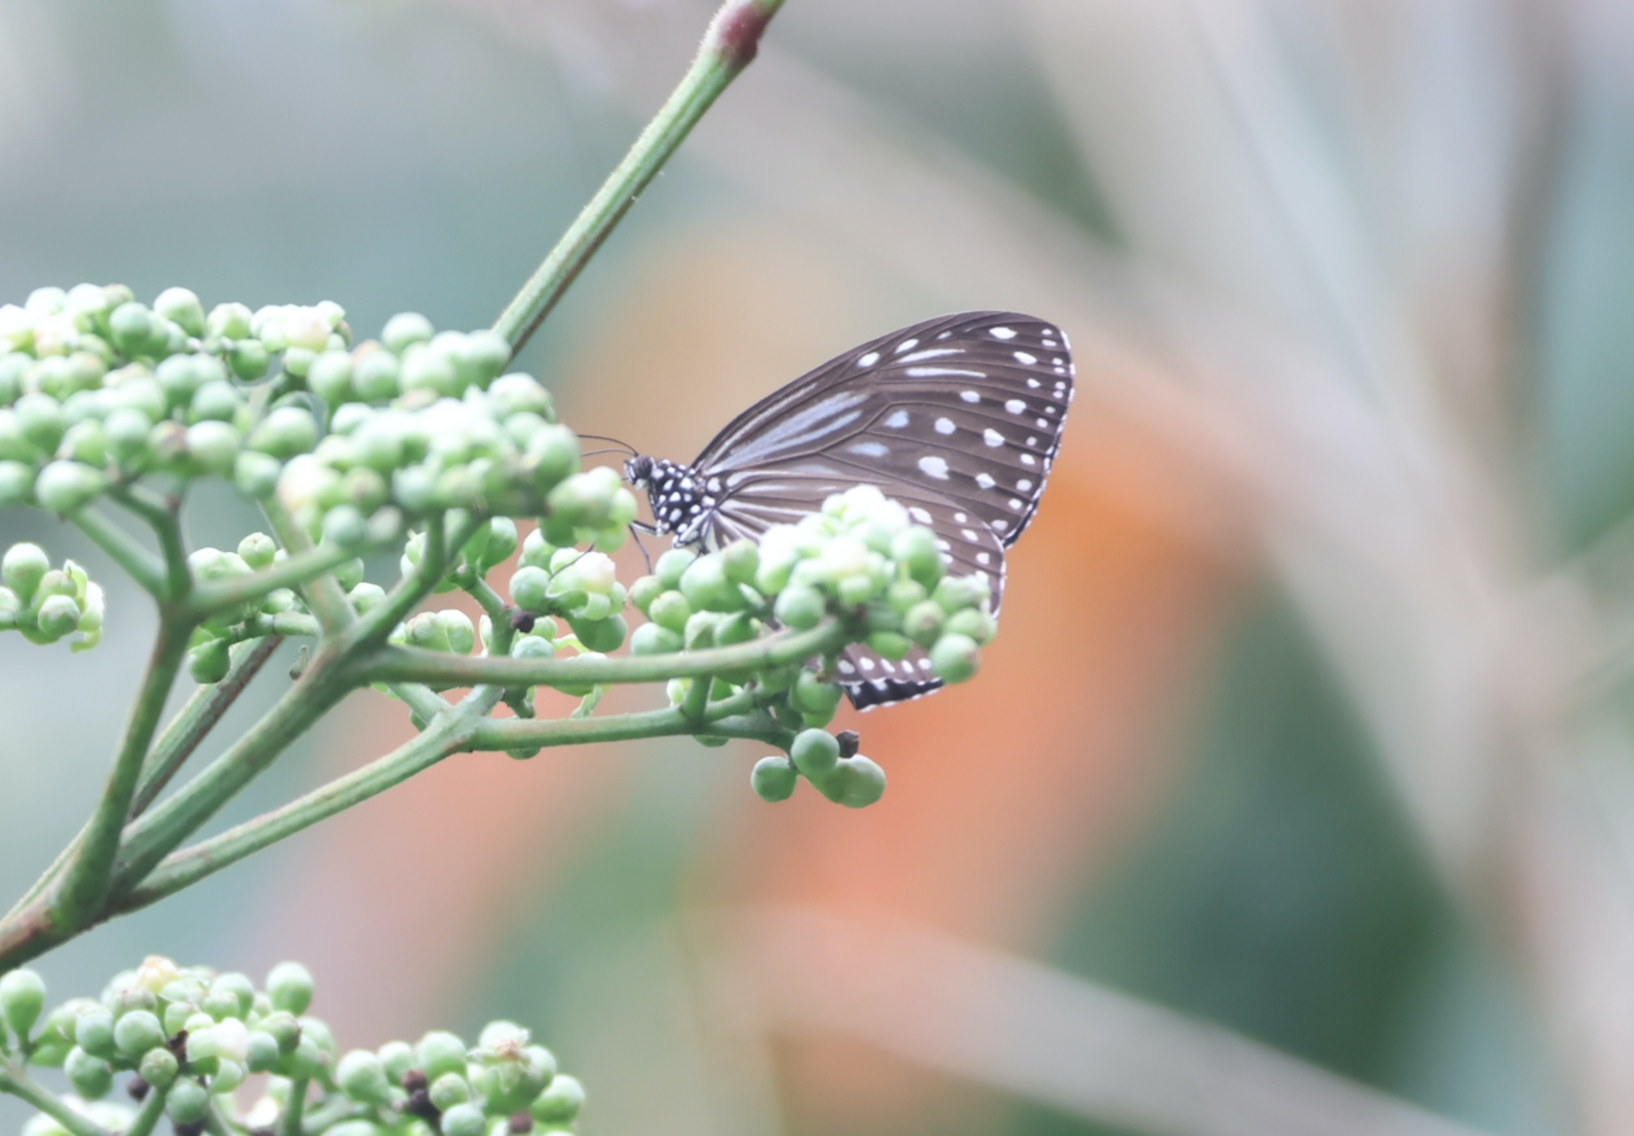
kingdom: Animalia
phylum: Arthropoda
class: Insecta
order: Lepidoptera
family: Nymphalidae
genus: Parantica
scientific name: Parantica agleoides
